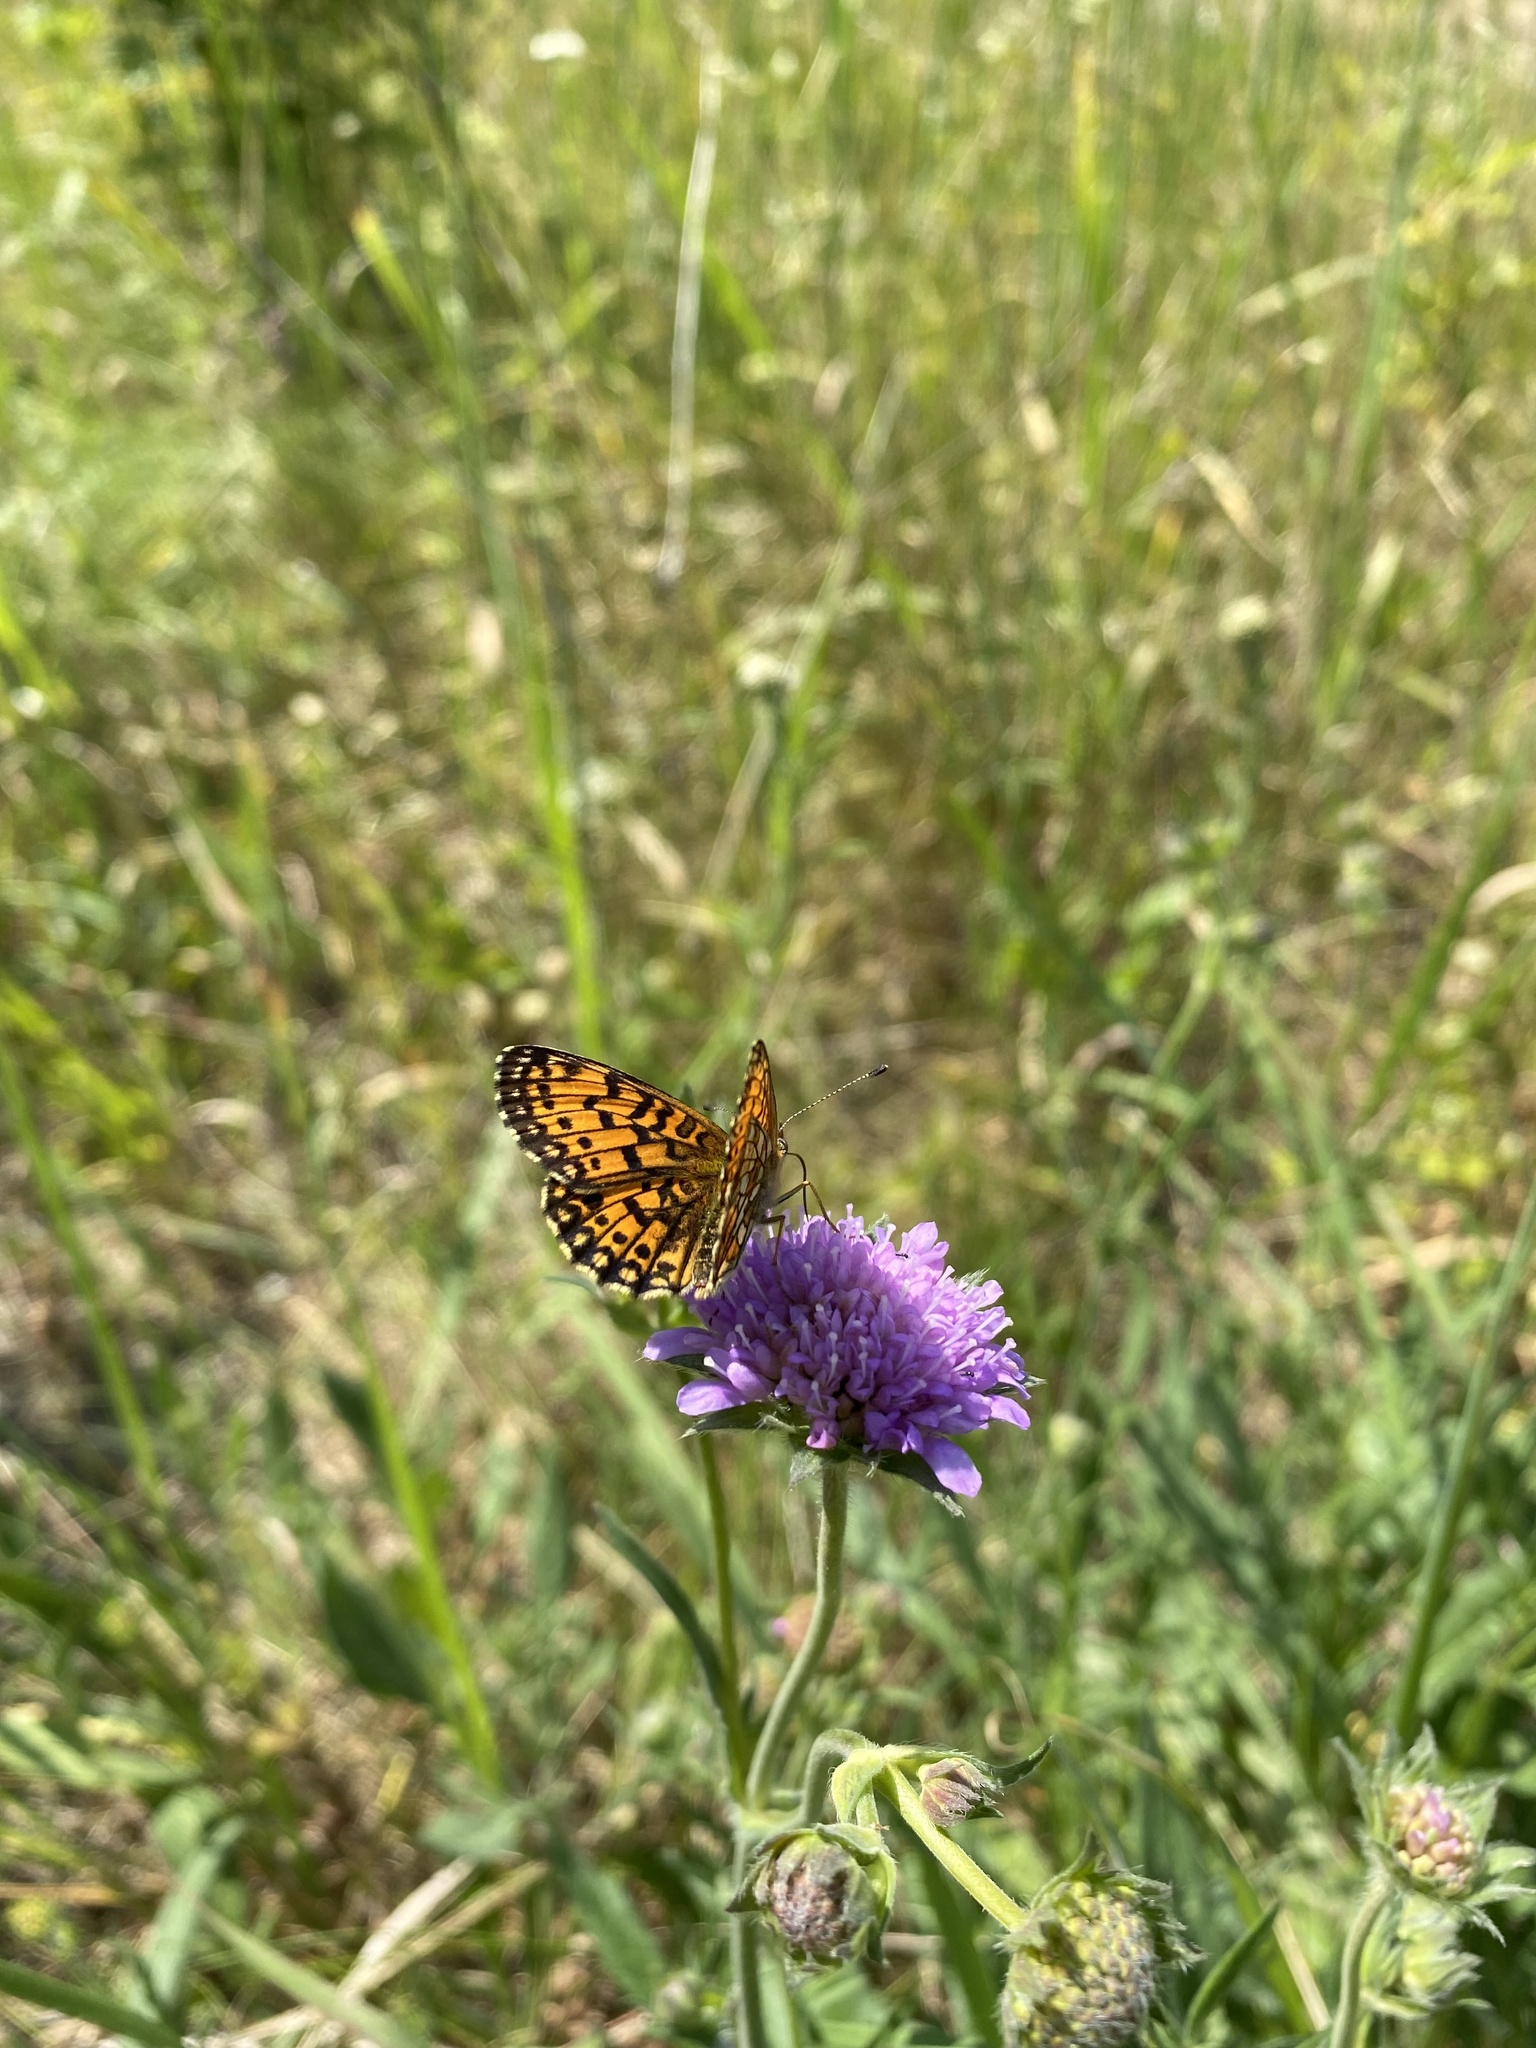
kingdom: Animalia
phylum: Arthropoda
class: Insecta
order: Lepidoptera
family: Nymphalidae
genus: Melitaea
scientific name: Melitaea phoebe
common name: Knapweed fritillary
